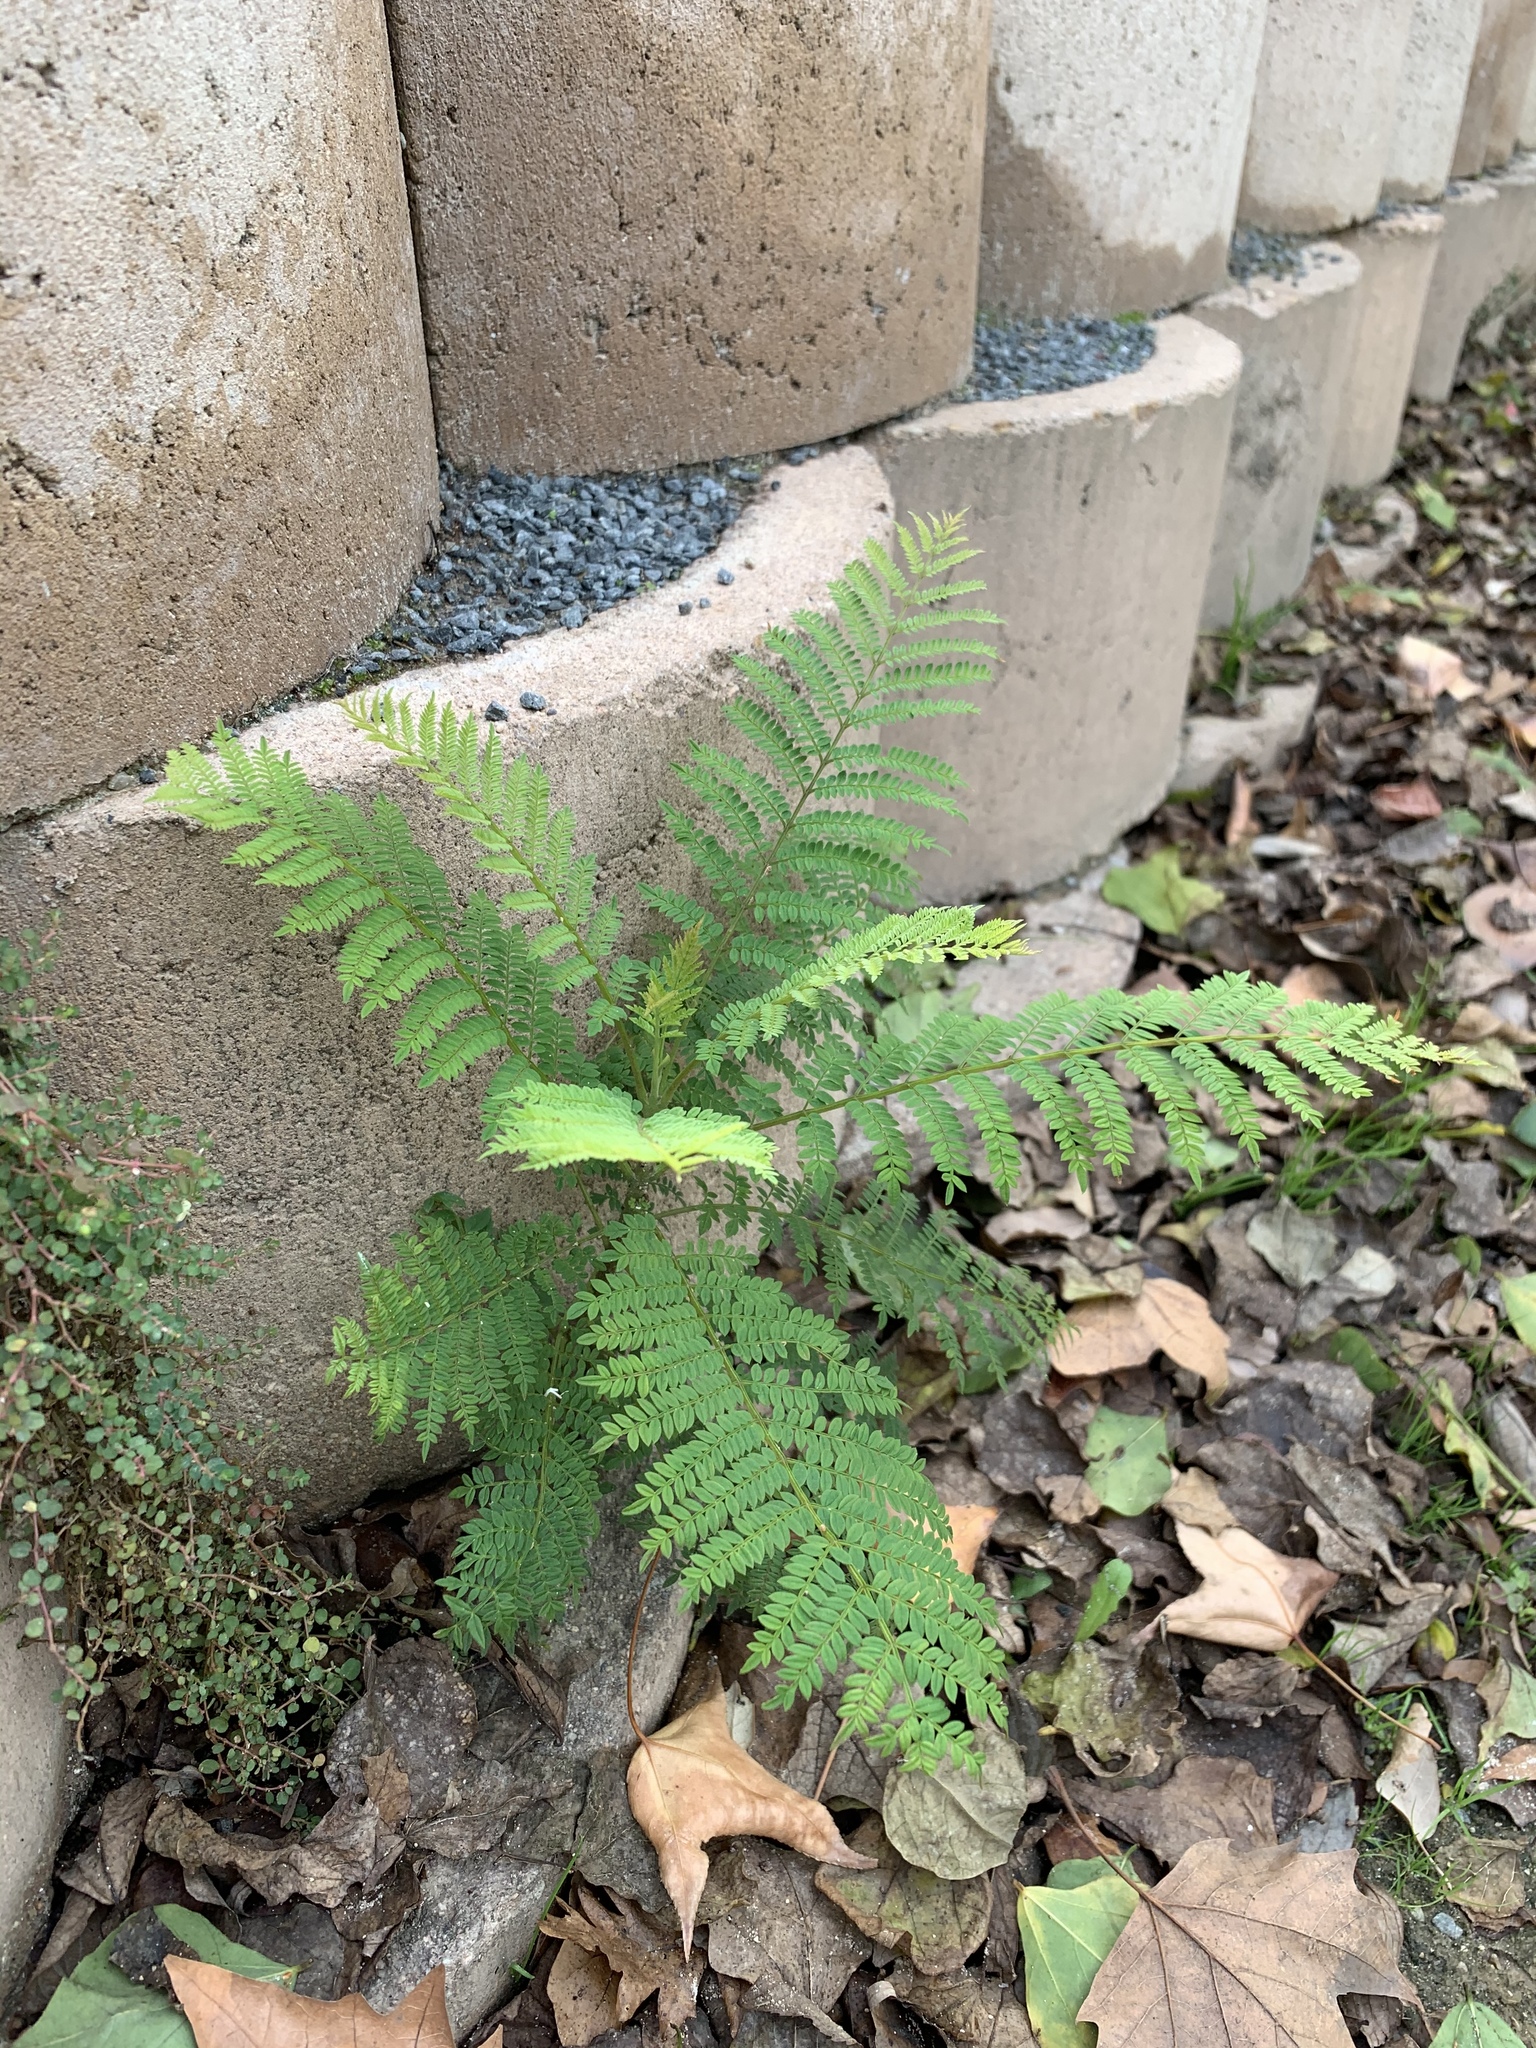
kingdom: Plantae
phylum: Tracheophyta
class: Magnoliopsida
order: Lamiales
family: Bignoniaceae
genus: Jacaranda
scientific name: Jacaranda mimosifolia
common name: Black poui
